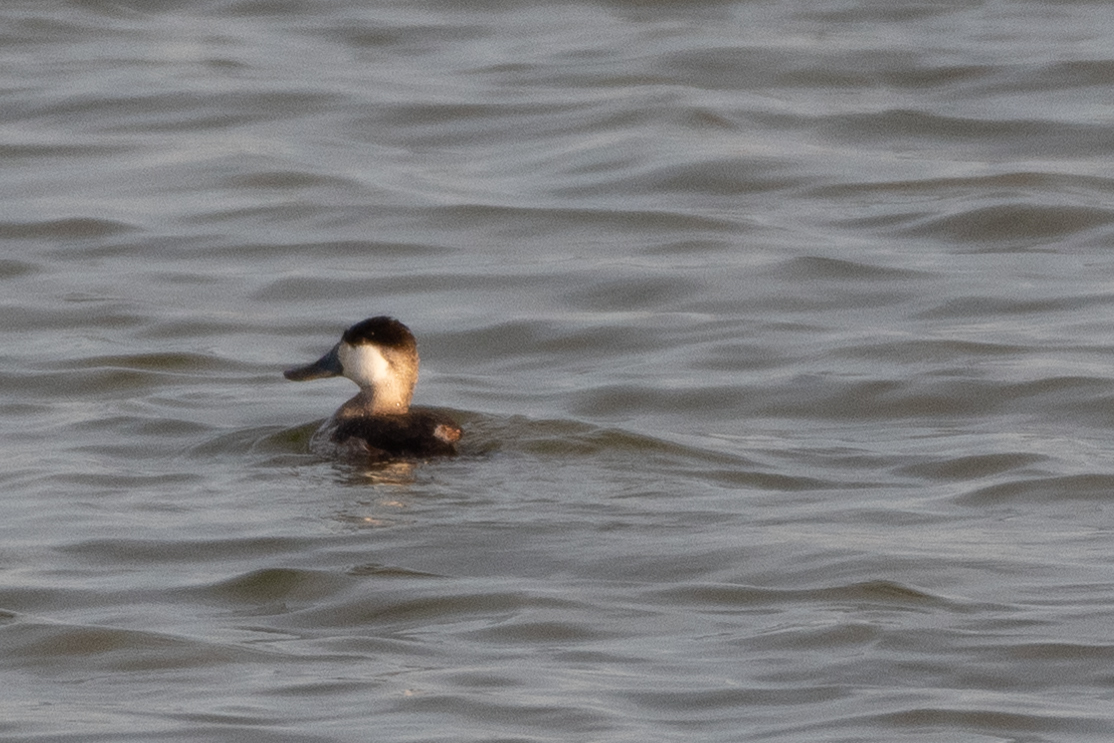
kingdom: Animalia
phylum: Chordata
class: Aves
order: Anseriformes
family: Anatidae
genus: Oxyura
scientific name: Oxyura jamaicensis
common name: Ruddy duck
